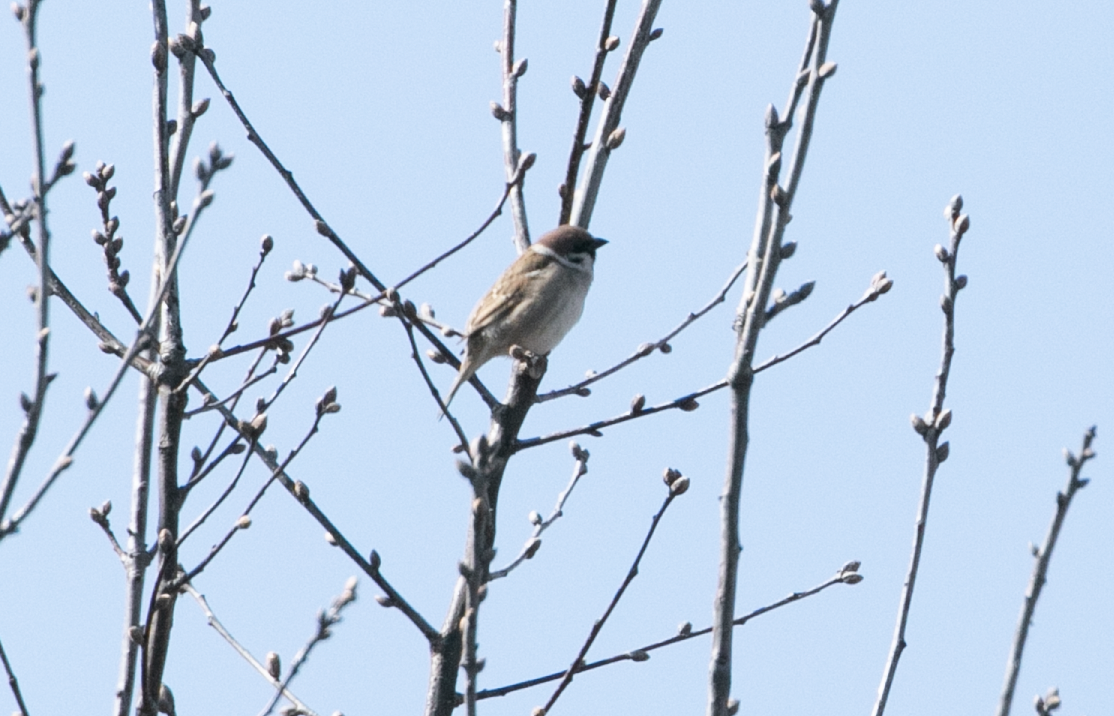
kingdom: Animalia
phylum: Chordata
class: Aves
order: Passeriformes
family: Passeridae
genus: Passer
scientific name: Passer montanus
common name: Eurasian tree sparrow
